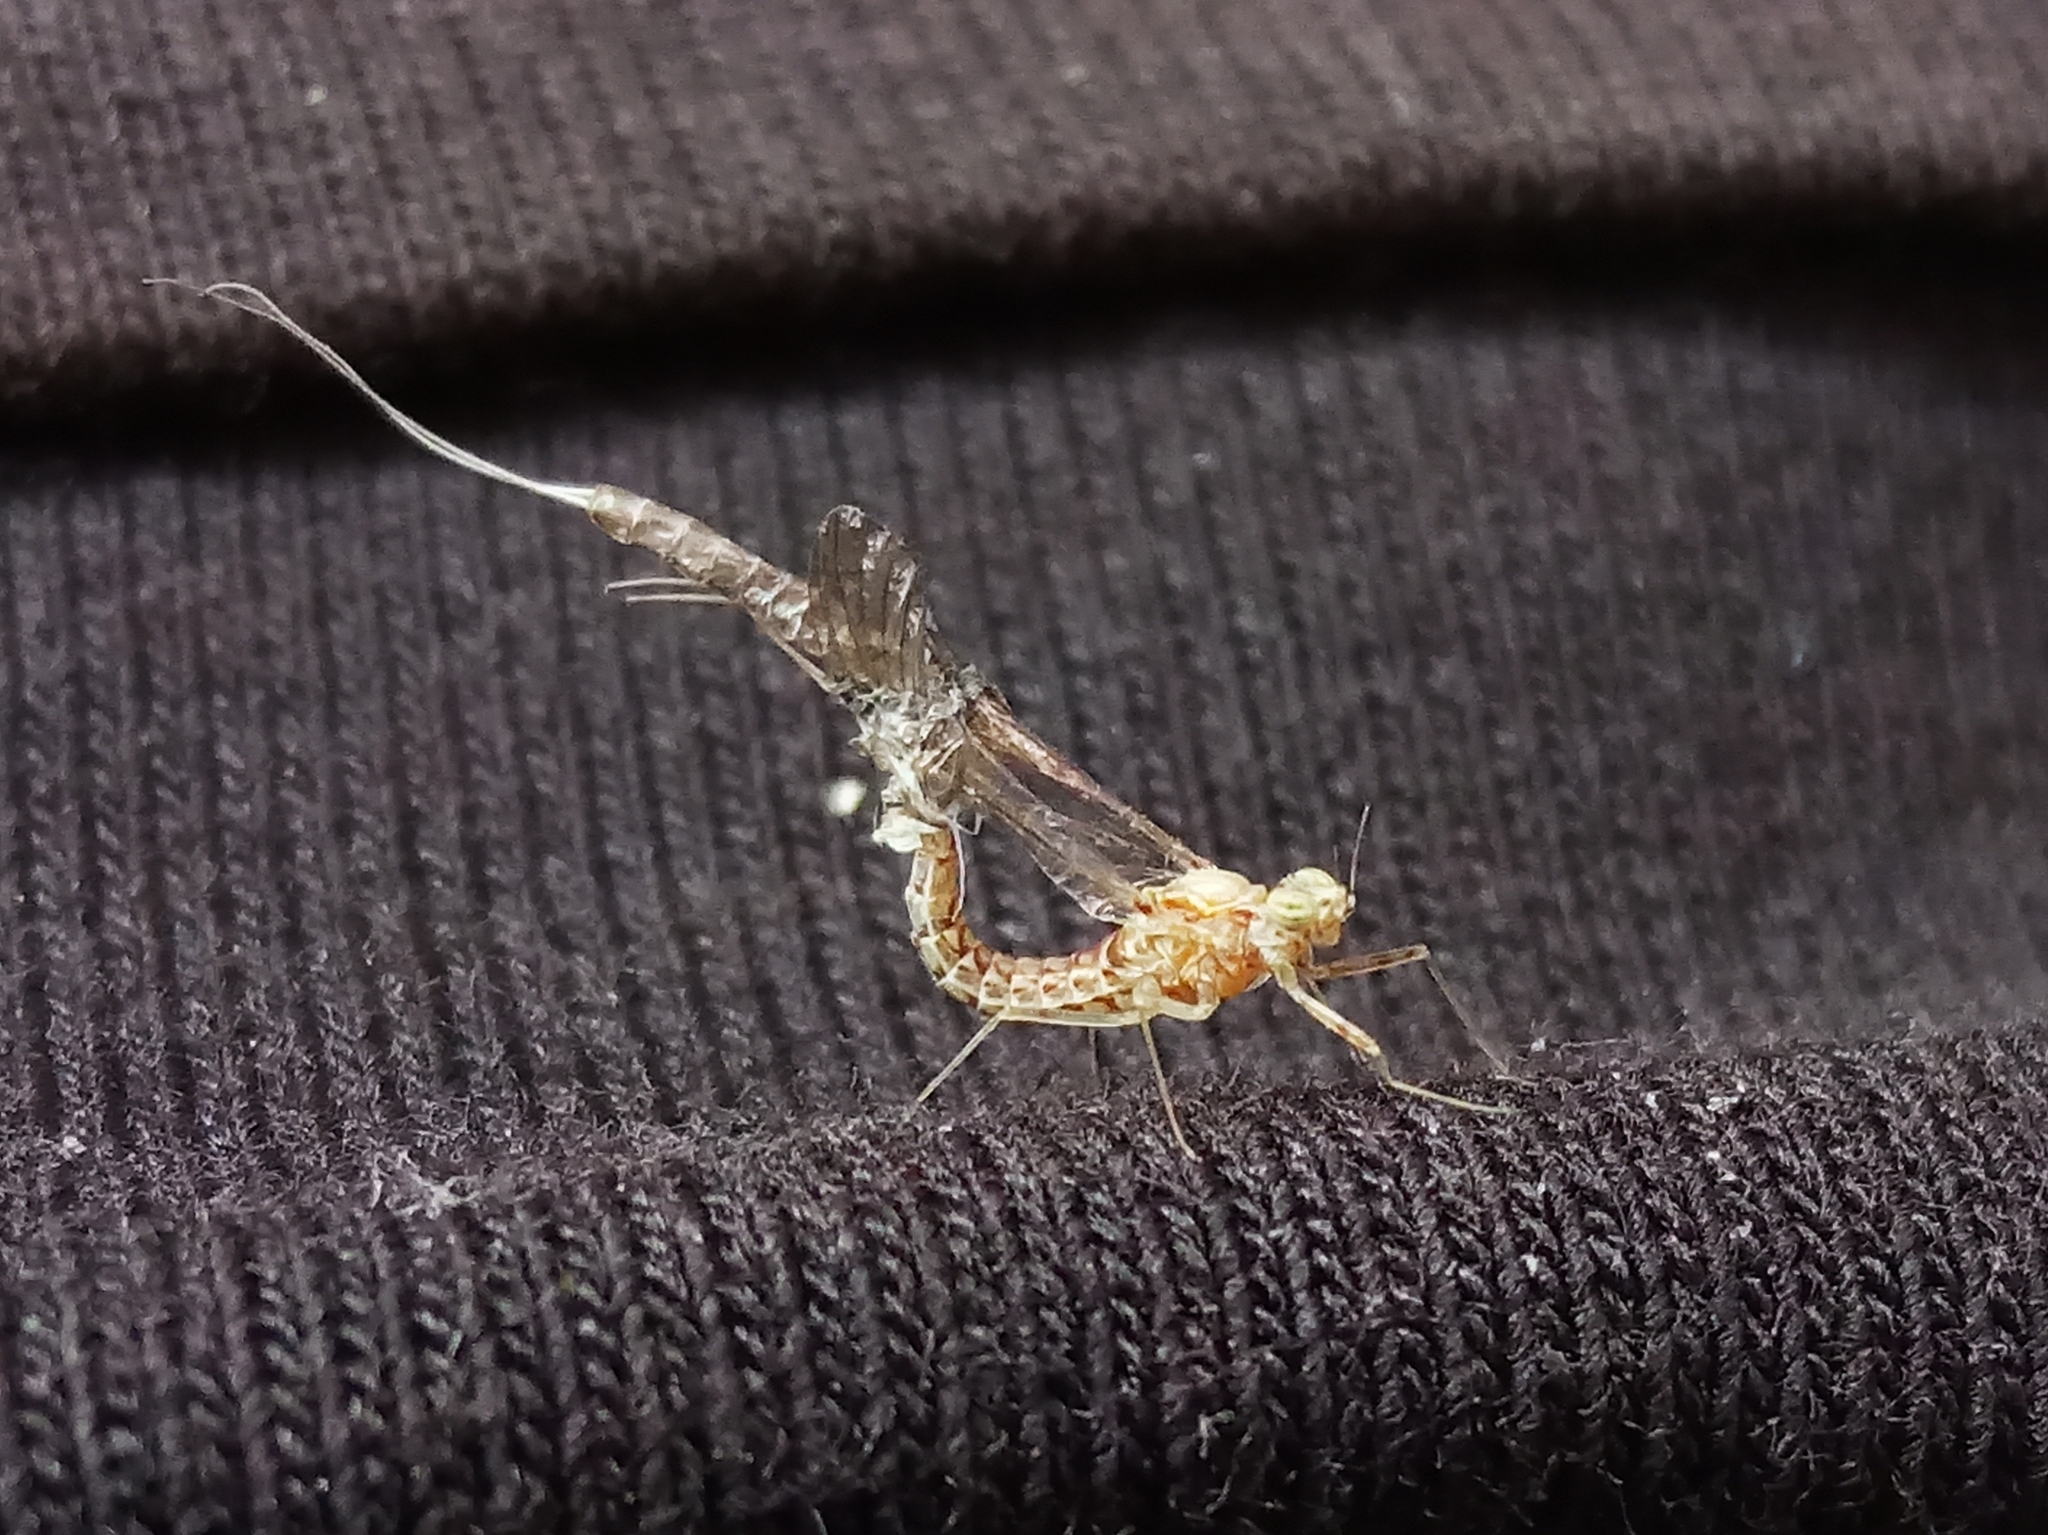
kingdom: Animalia
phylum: Arthropoda
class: Insecta
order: Ephemeroptera
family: Baetidae
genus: Cloeon
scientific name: Cloeon dipterum
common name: Pond olive
